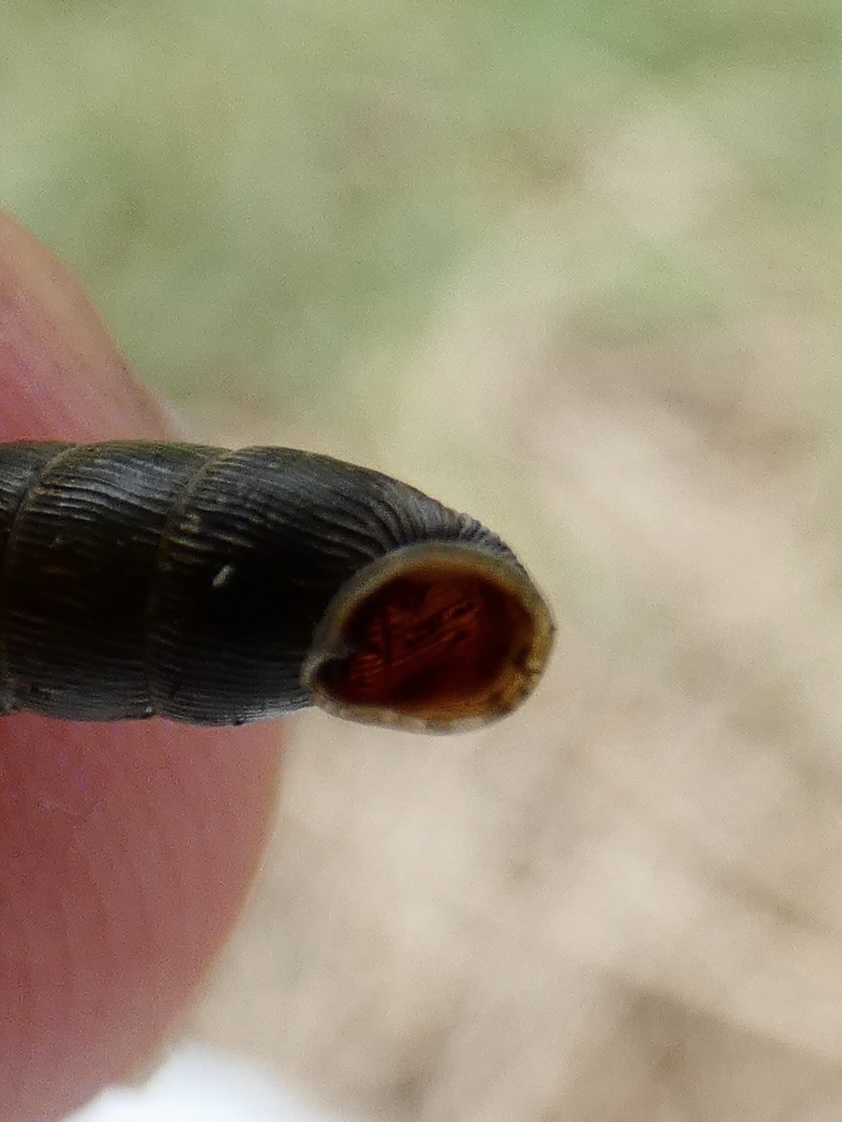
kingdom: Animalia
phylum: Mollusca
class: Gastropoda
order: Stylommatophora
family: Clausiliidae
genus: Clausilia
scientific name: Clausilia bidentata
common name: Two-toothed door snail
